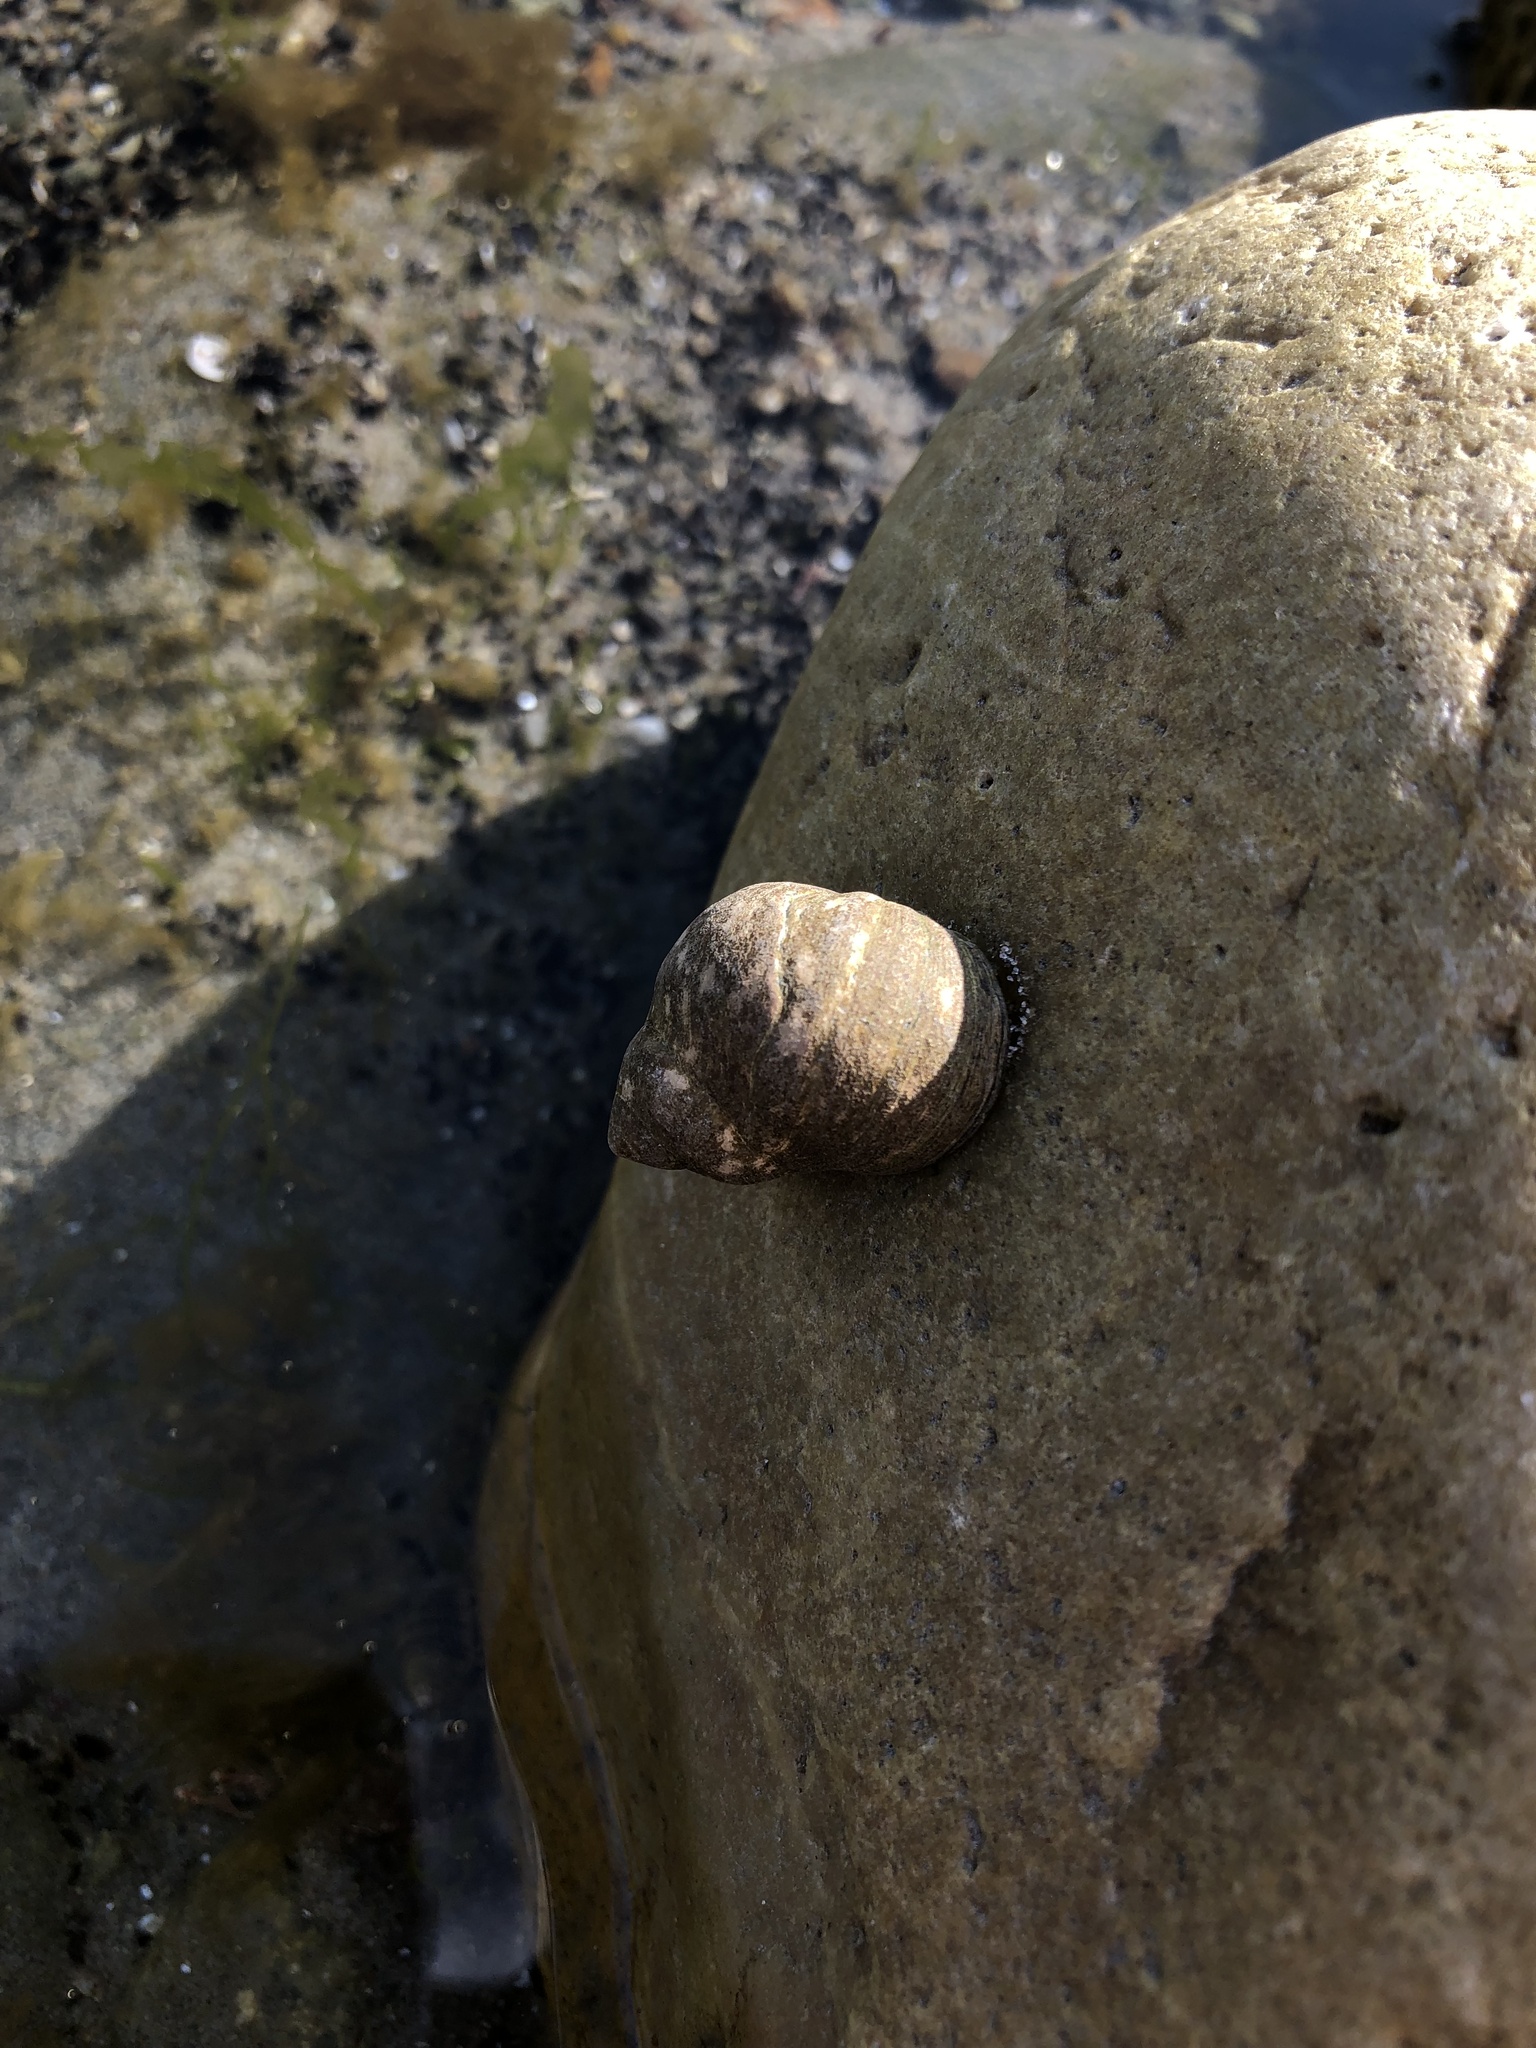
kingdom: Animalia
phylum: Mollusca
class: Gastropoda
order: Littorinimorpha
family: Littorinidae
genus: Littorina
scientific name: Littorina littorea
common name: Common periwinkle
